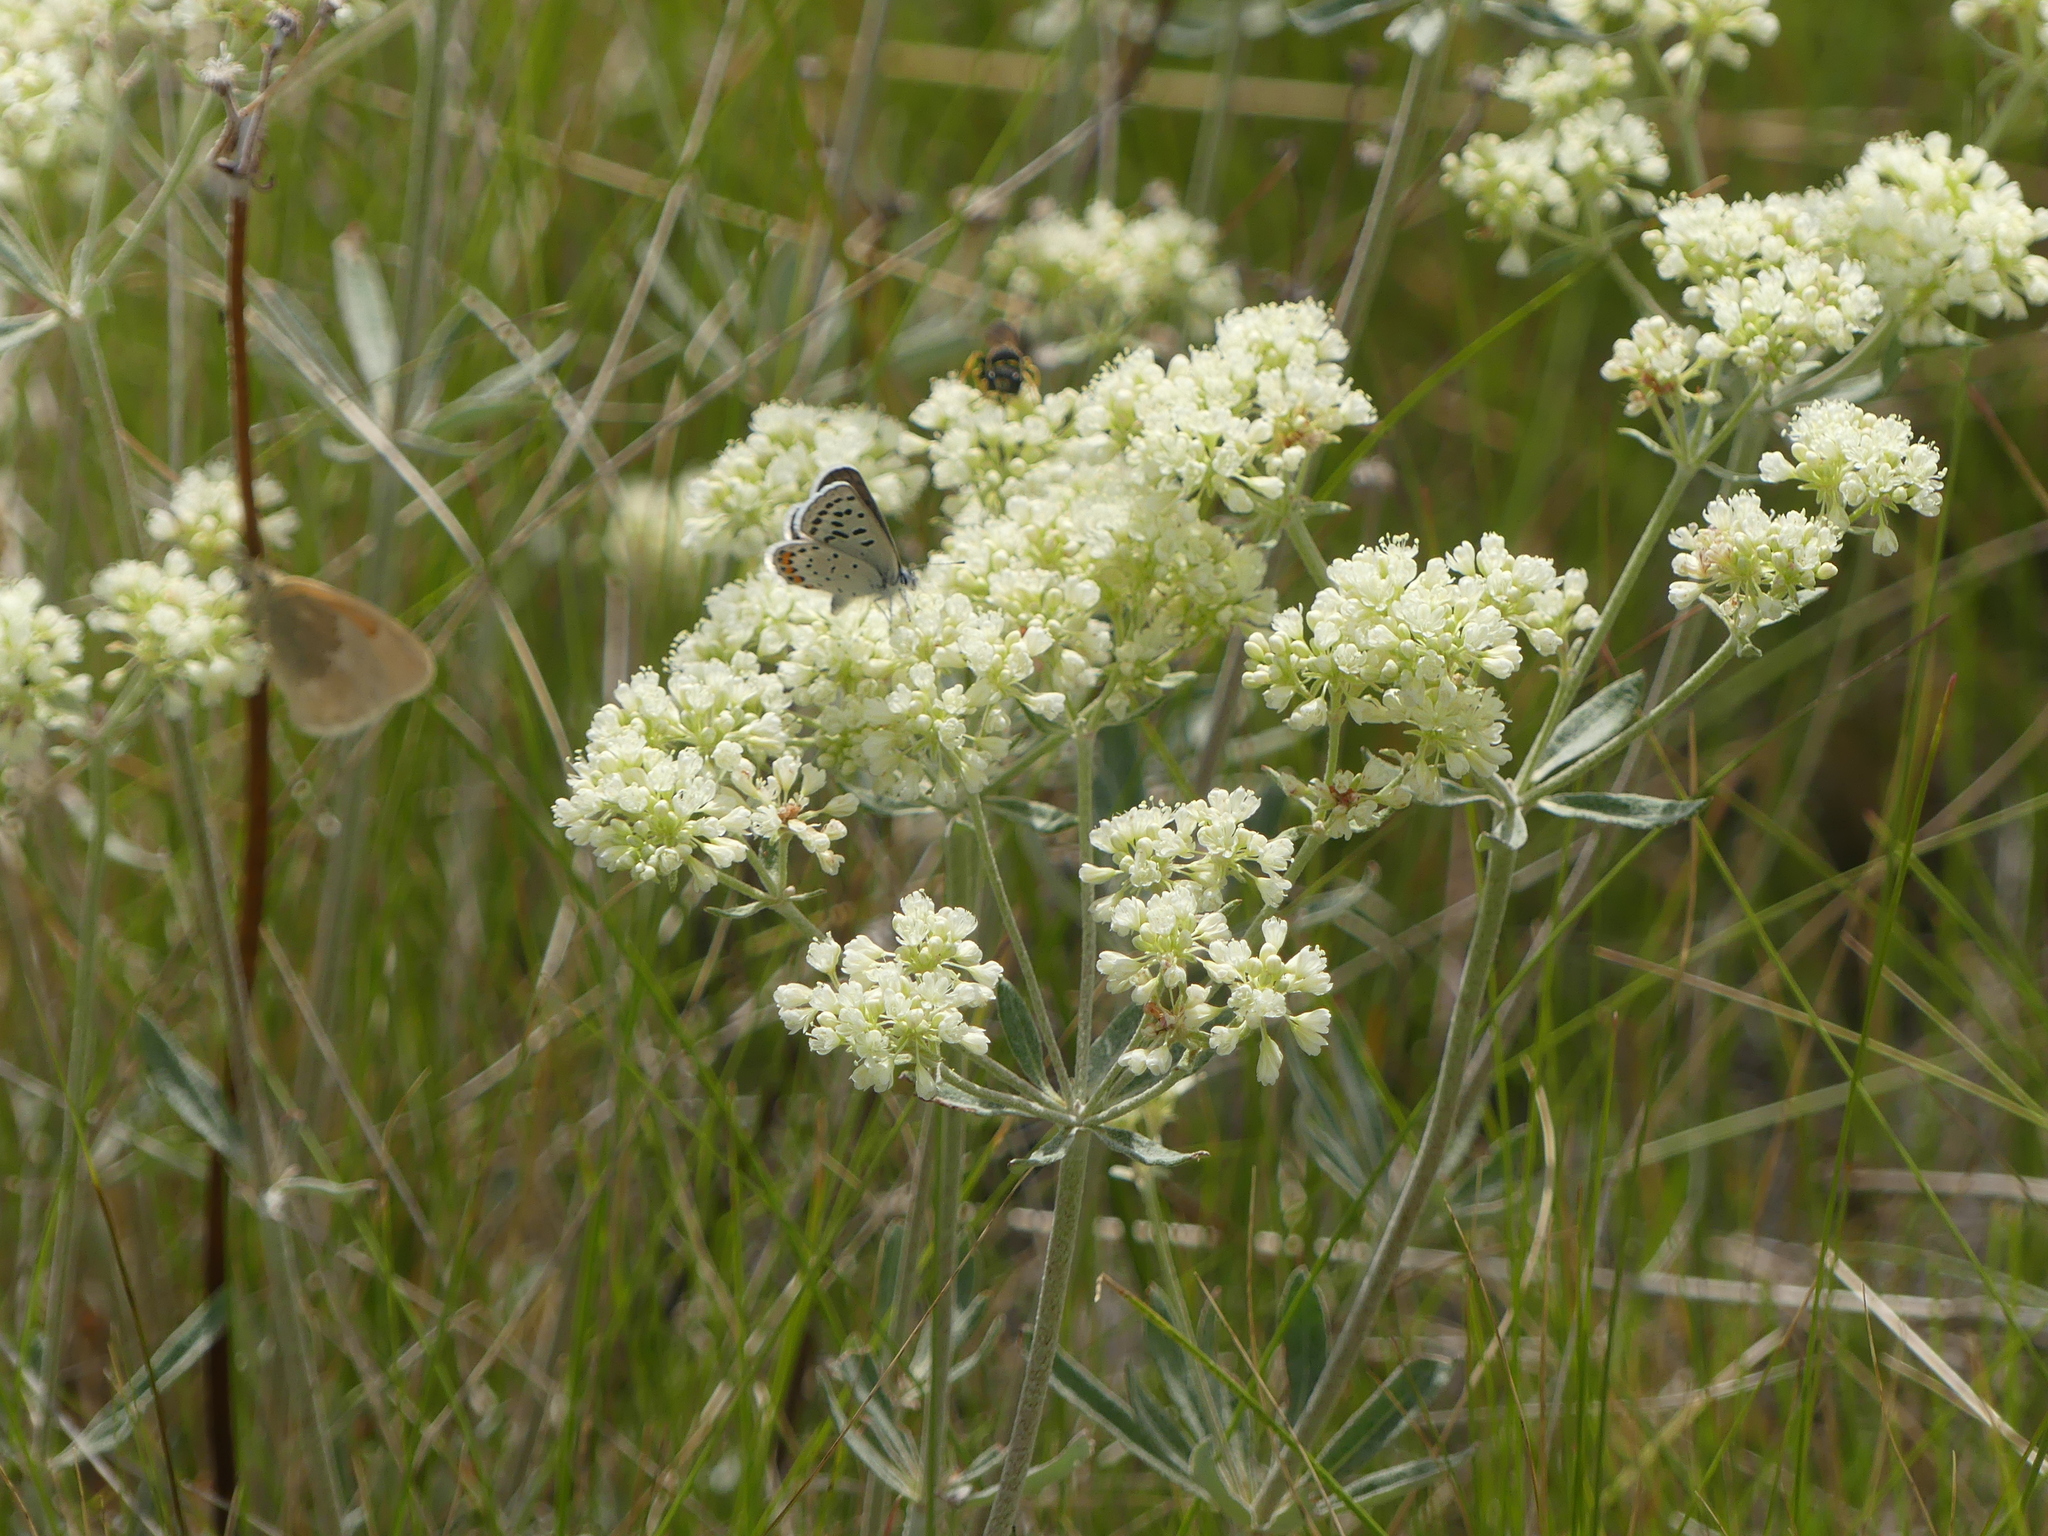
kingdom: Animalia
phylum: Arthropoda
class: Insecta
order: Lepidoptera
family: Lycaenidae
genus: Icaricia
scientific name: Icaricia lupini
